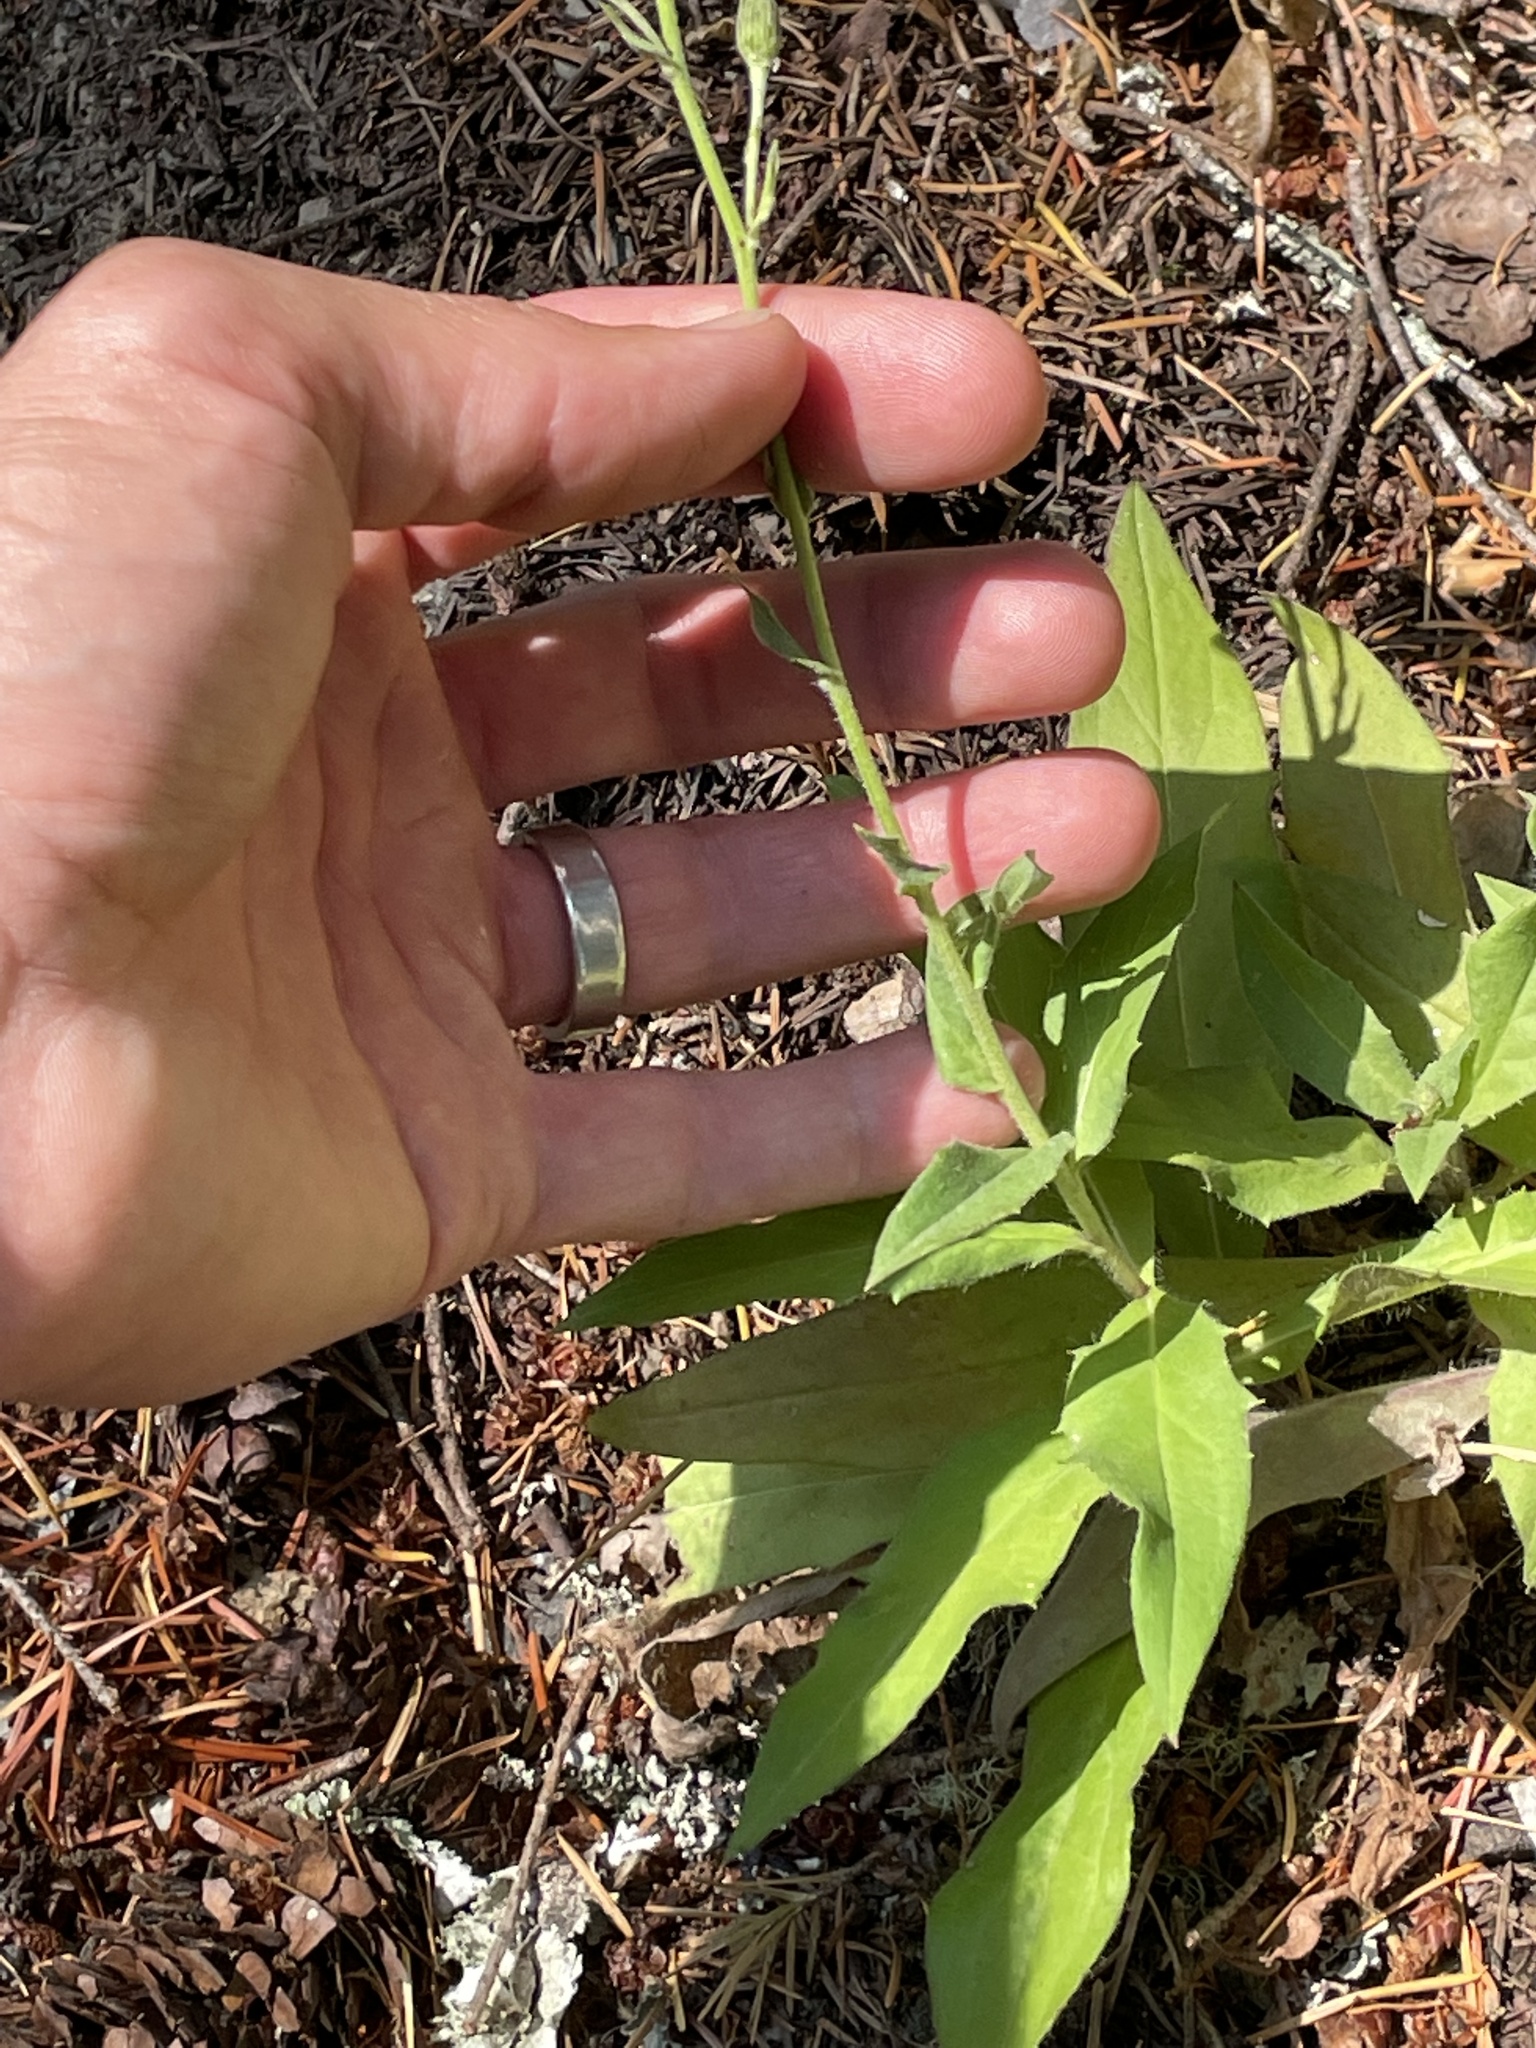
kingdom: Plantae
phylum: Tracheophyta
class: Magnoliopsida
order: Asterales
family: Asteraceae
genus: Hieracium
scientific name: Hieracium sabaudum
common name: New england hawkweed
